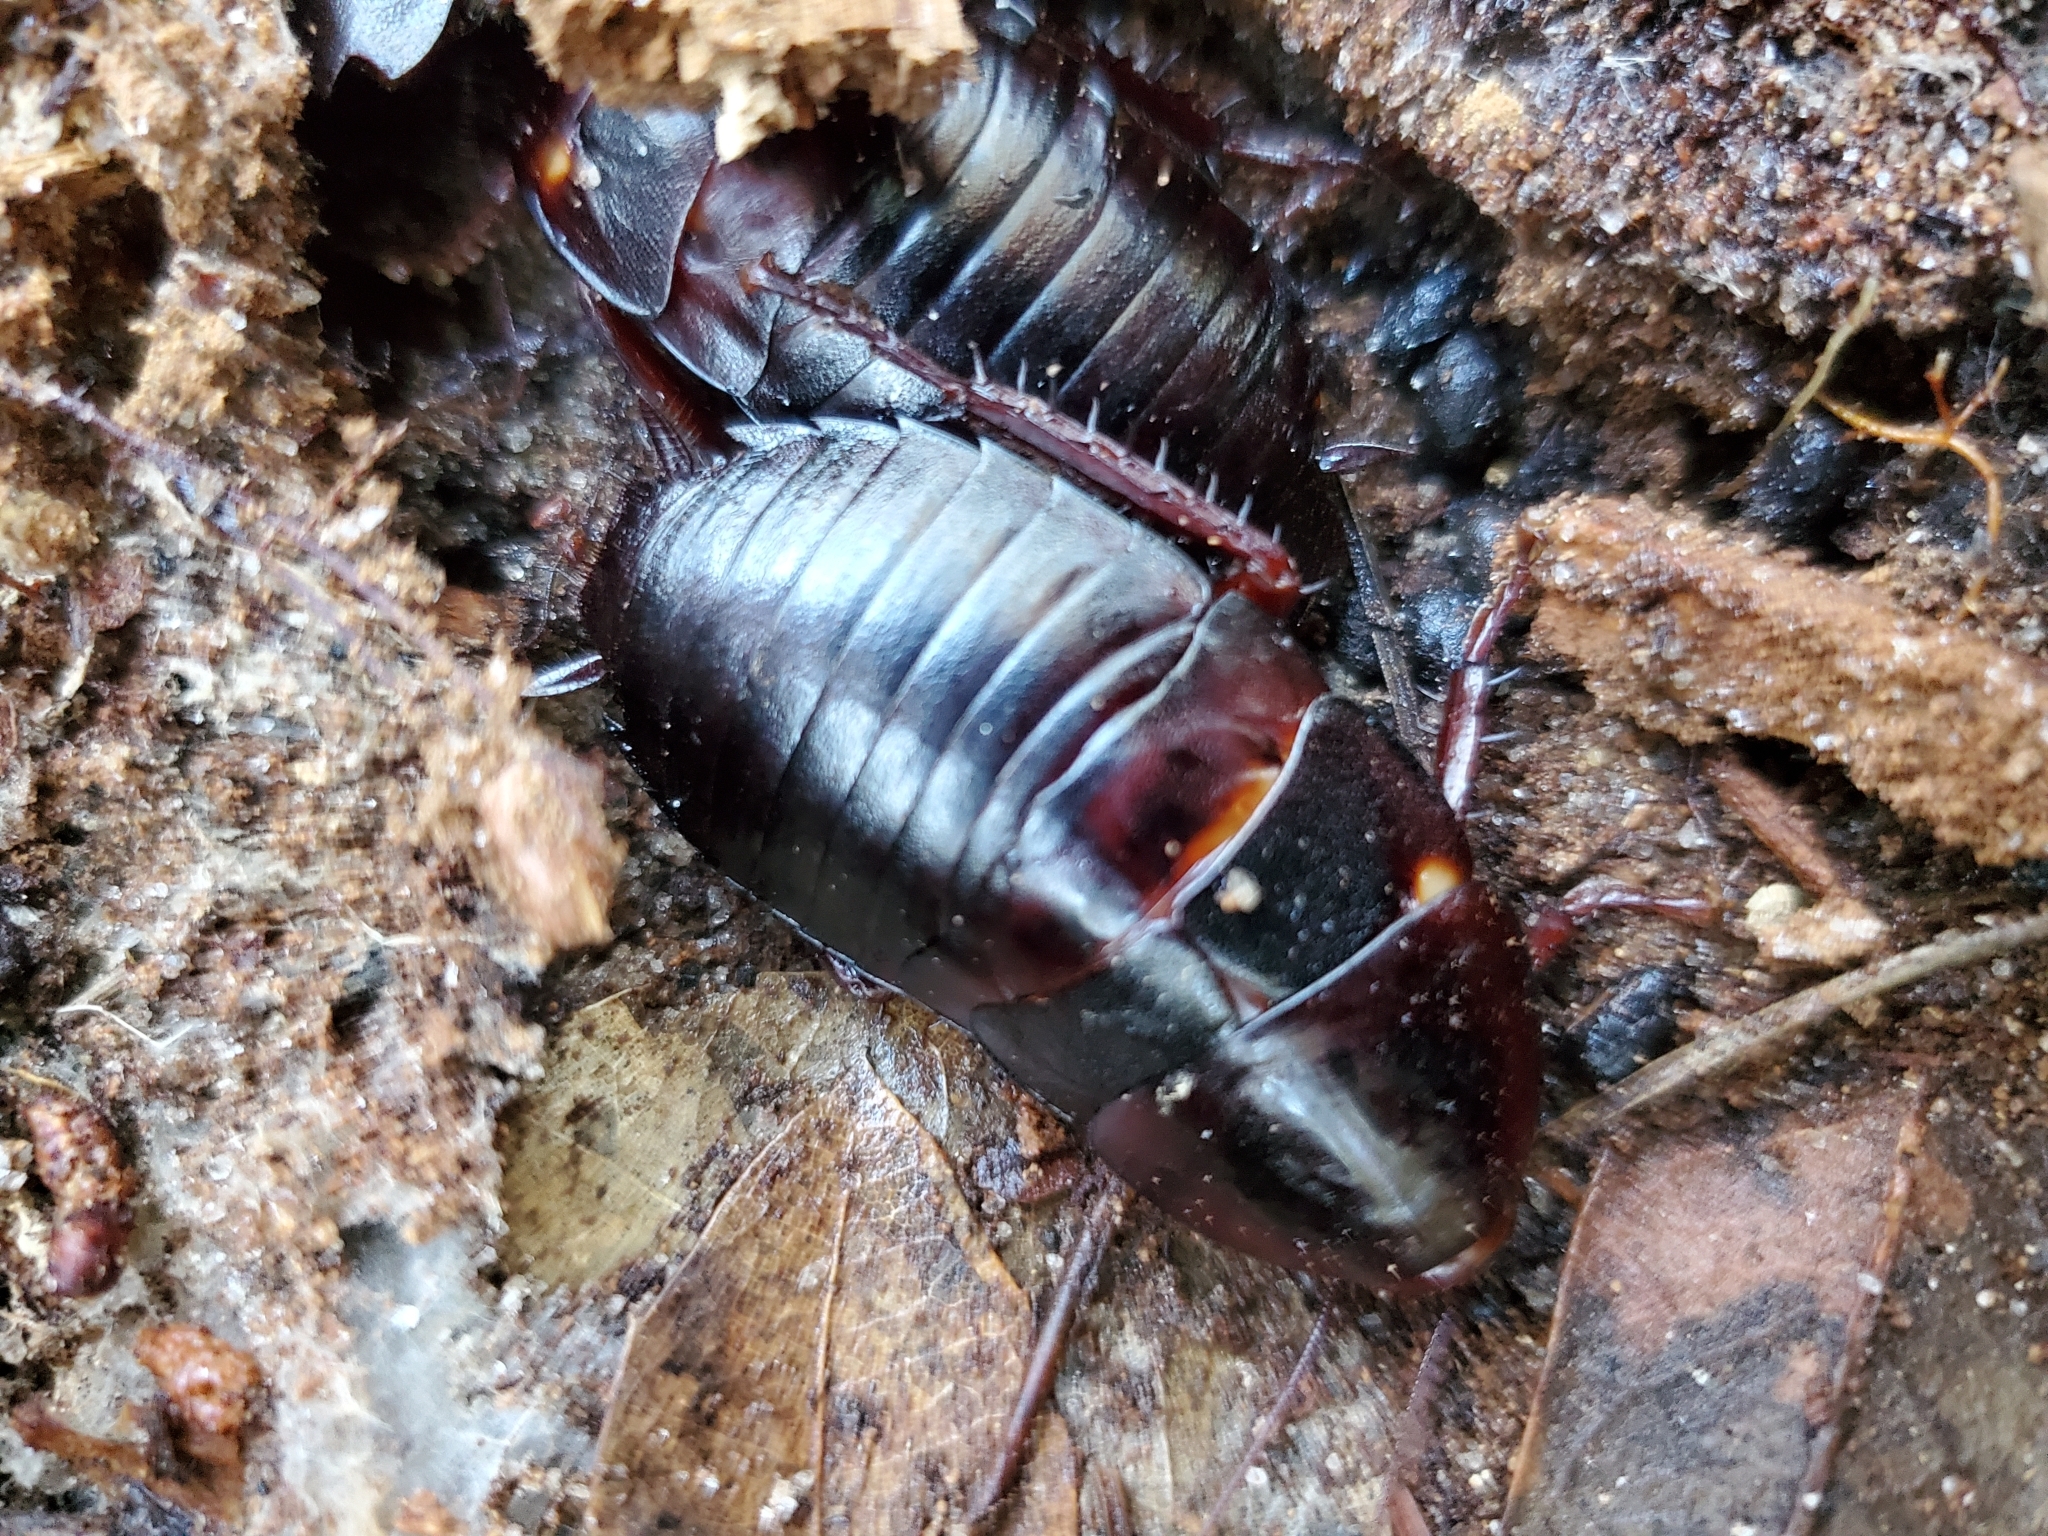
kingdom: Animalia
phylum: Arthropoda
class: Insecta
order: Blattodea
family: Blattidae
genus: Eurycotis
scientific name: Eurycotis floridana
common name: Florida cockroach
